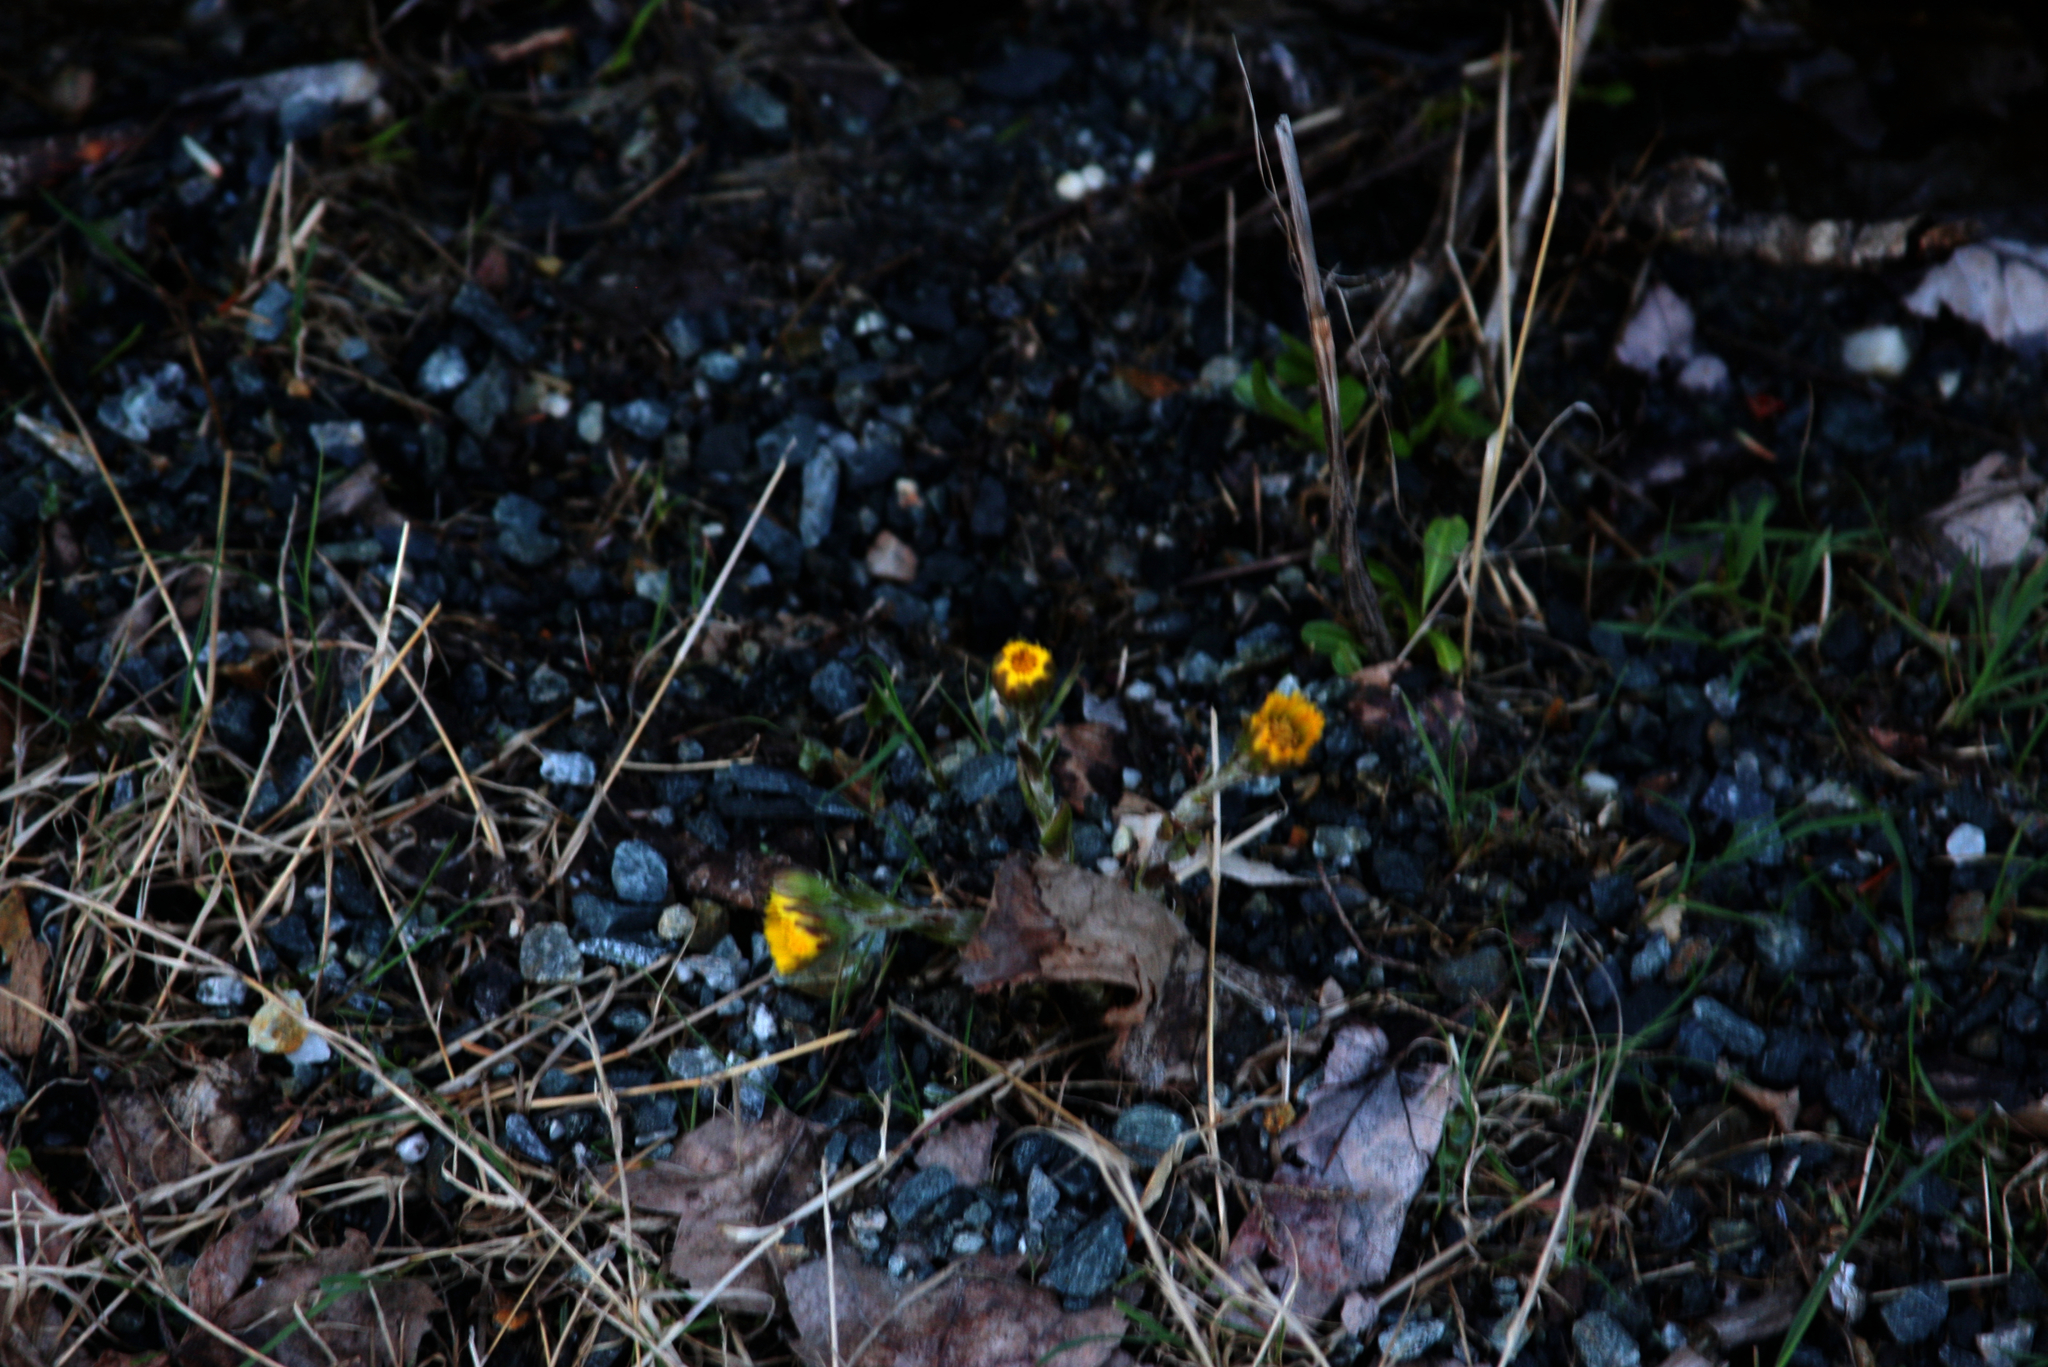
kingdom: Plantae
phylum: Tracheophyta
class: Magnoliopsida
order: Asterales
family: Asteraceae
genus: Tussilago
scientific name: Tussilago farfara
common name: Coltsfoot
